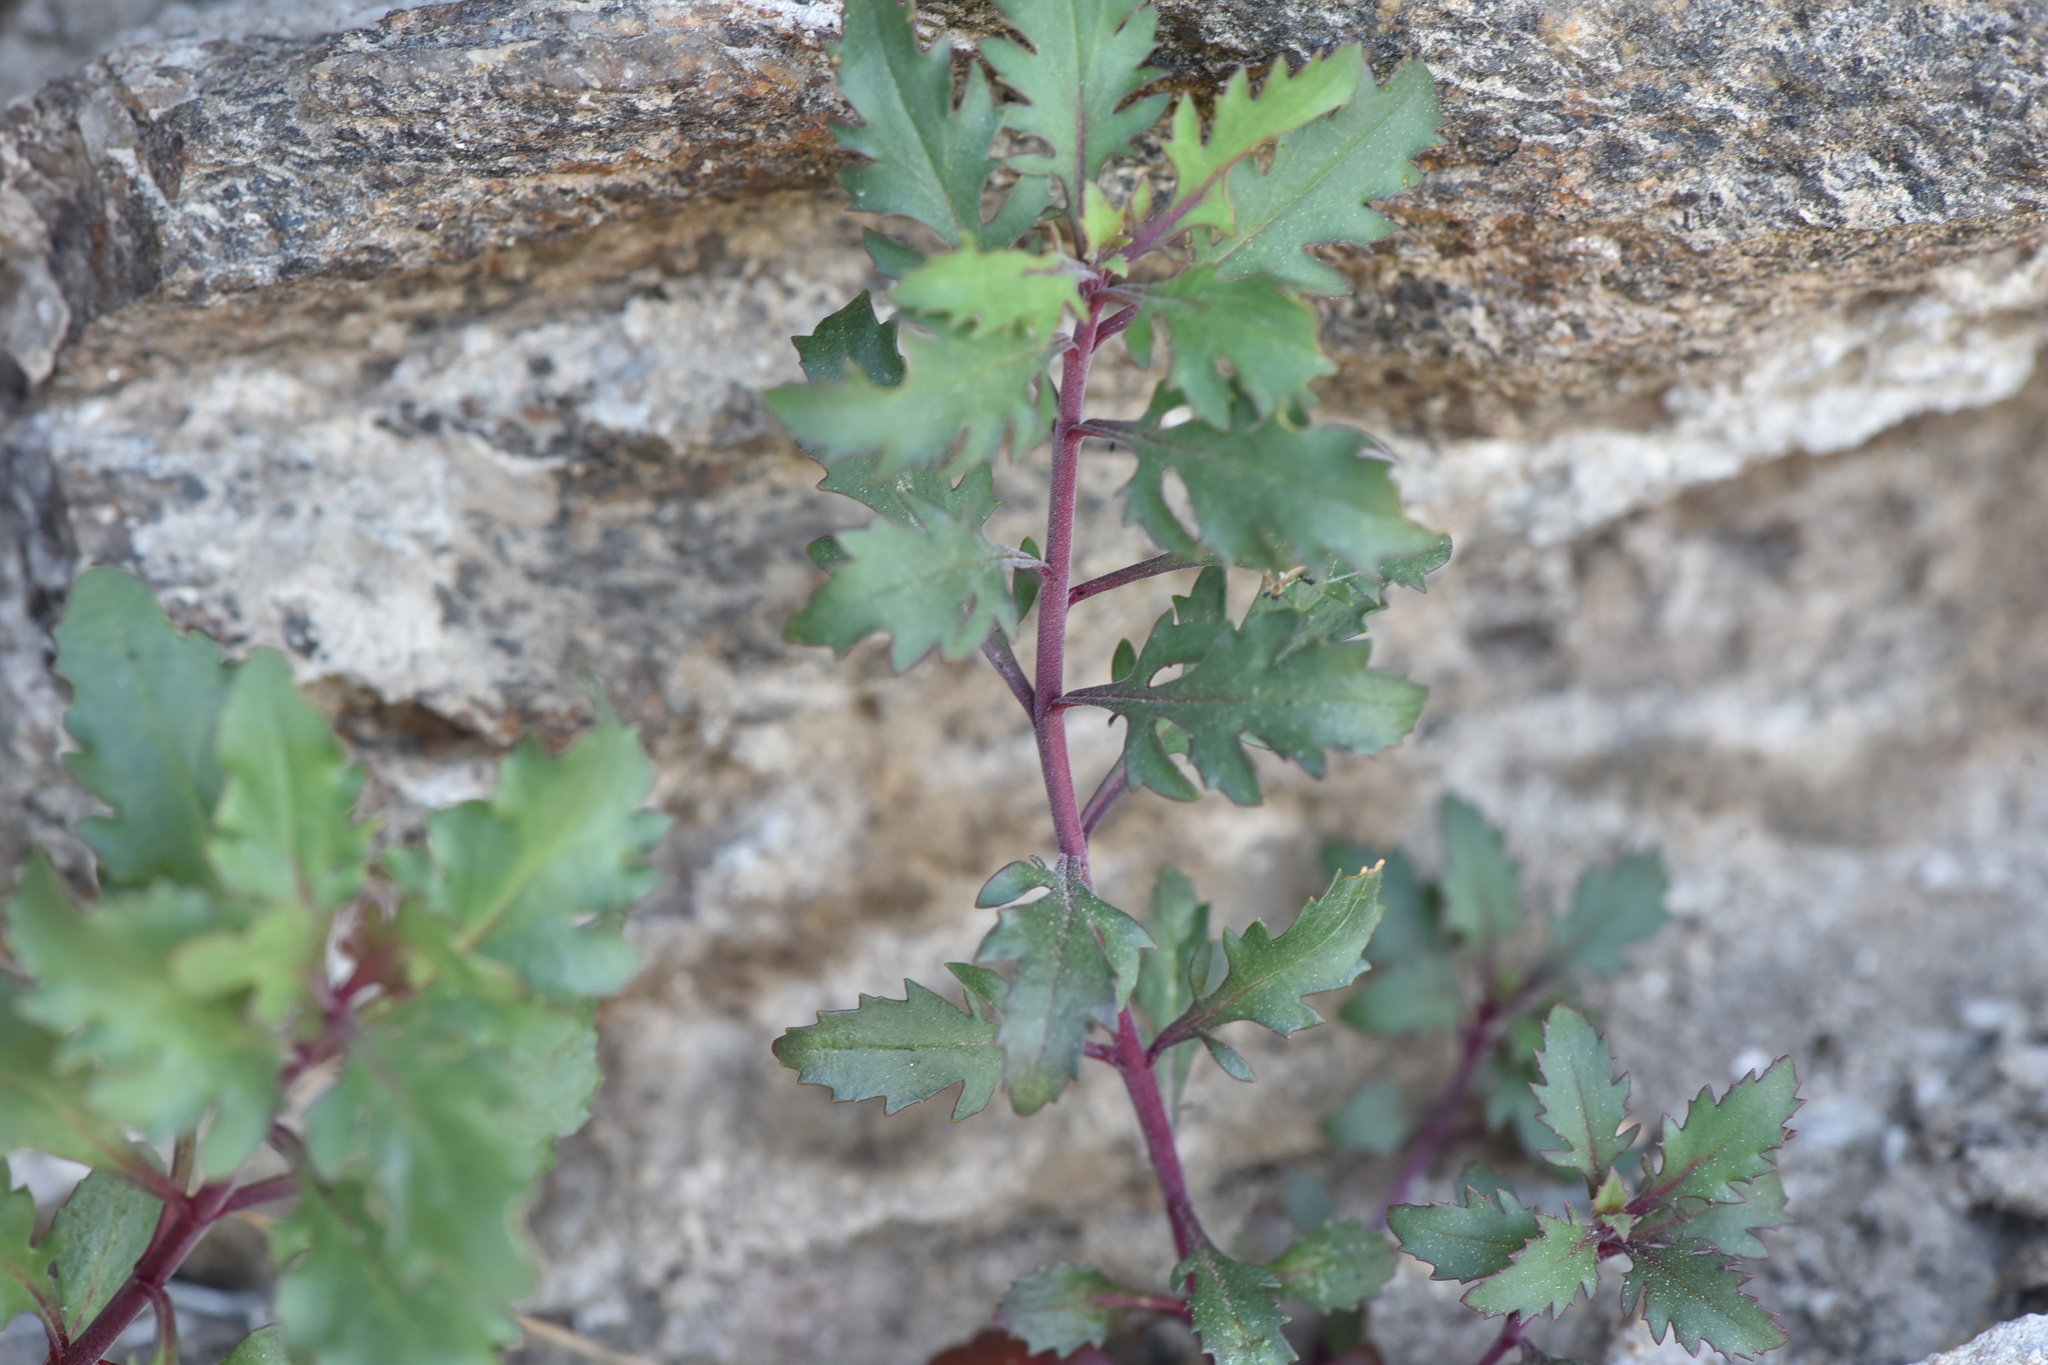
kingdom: Plantae
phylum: Tracheophyta
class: Magnoliopsida
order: Lamiales
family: Plantaginaceae
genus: Penstemon
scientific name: Penstemon richardsonii
